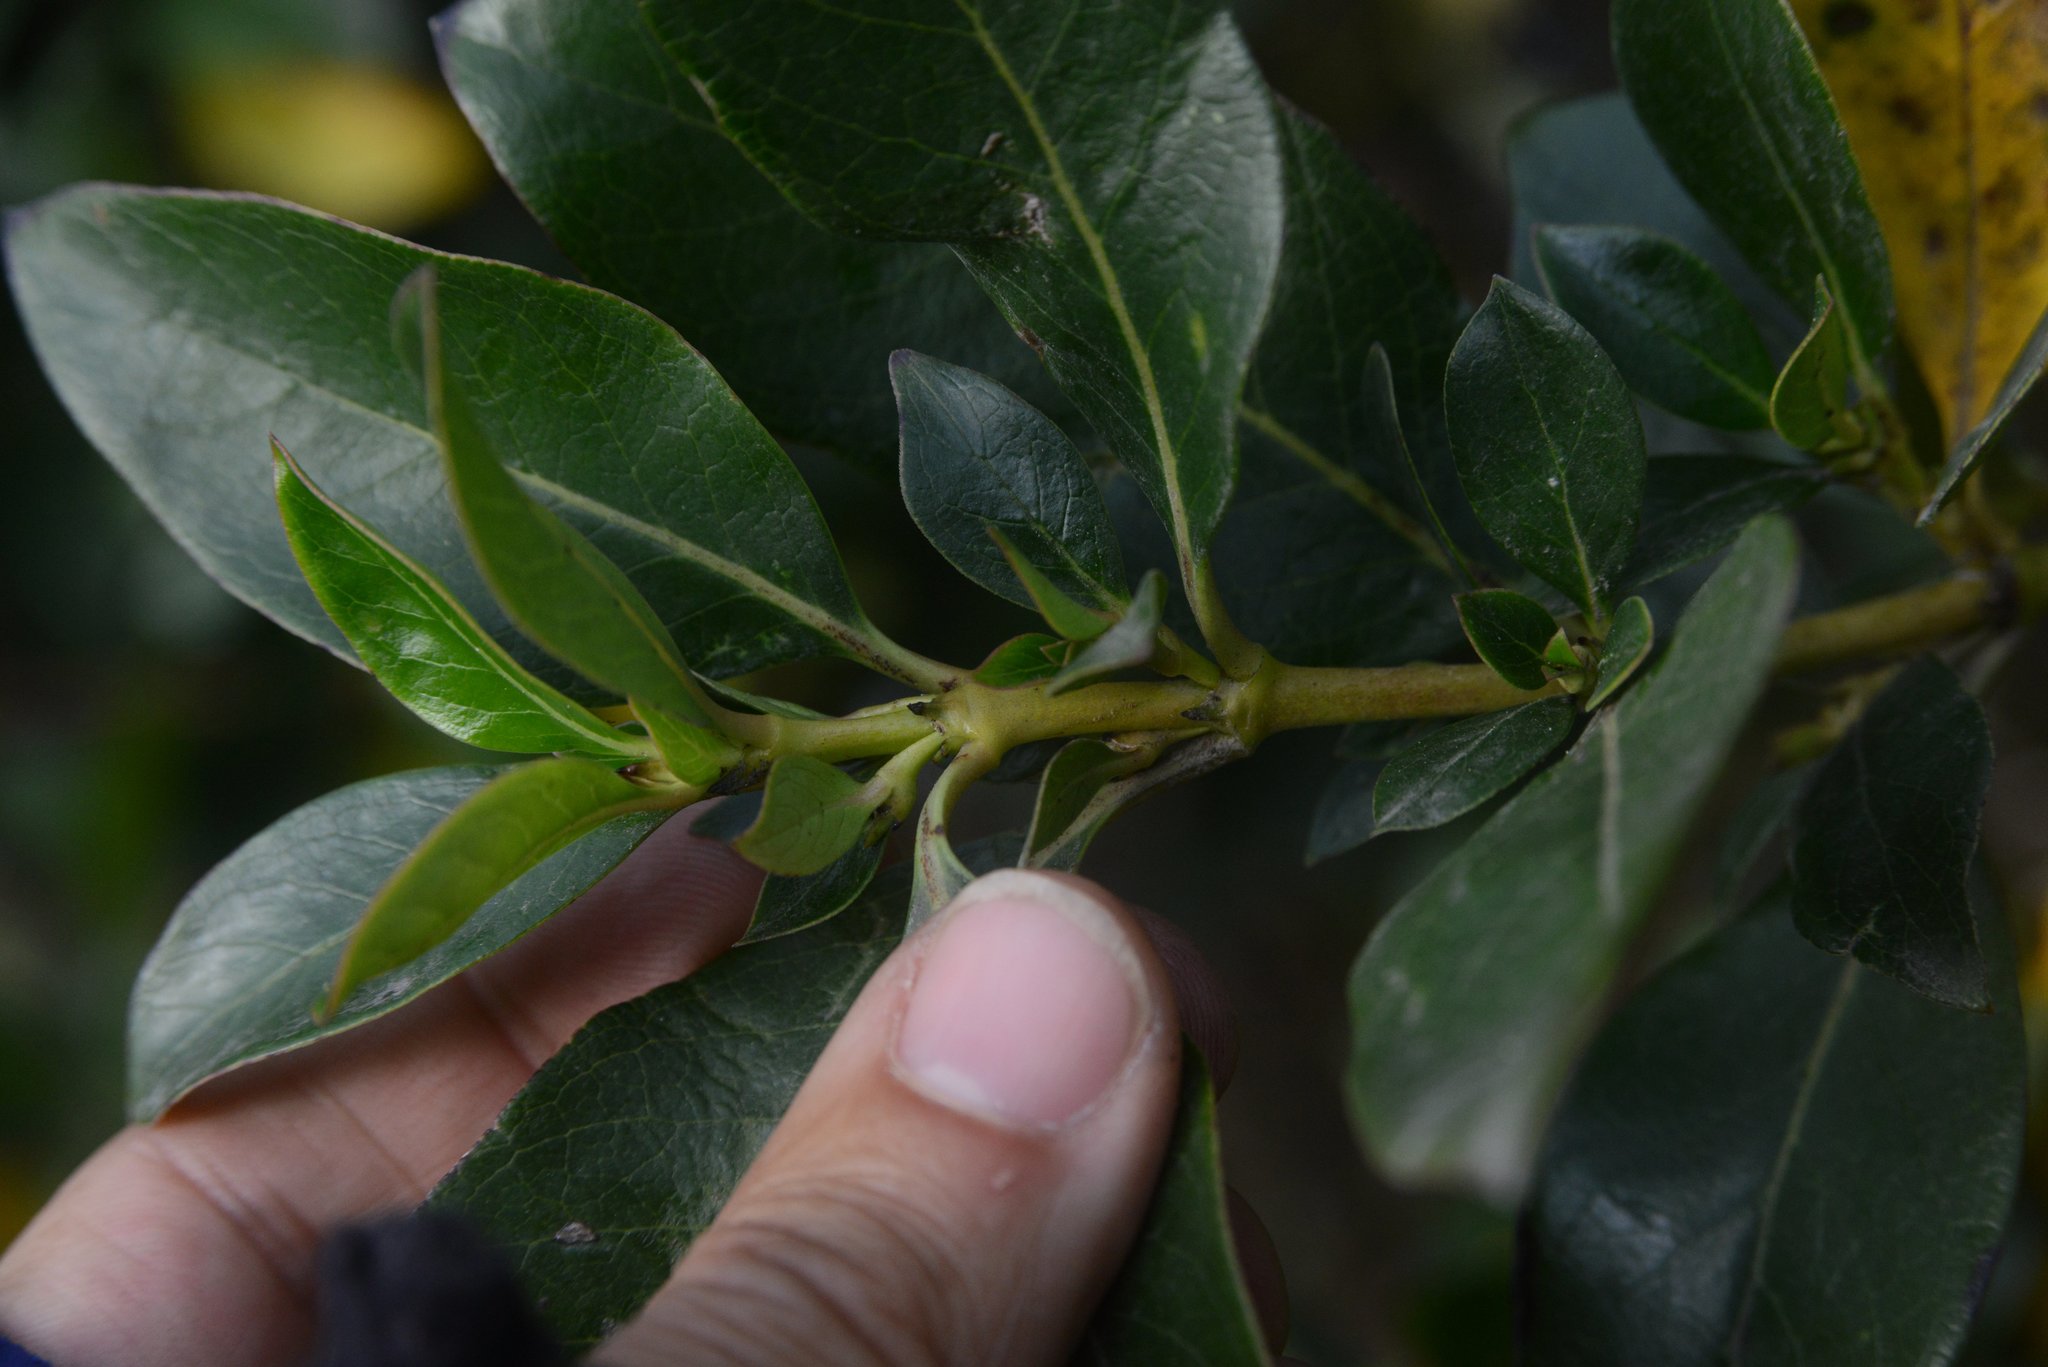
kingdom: Plantae
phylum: Tracheophyta
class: Magnoliopsida
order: Gentianales
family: Rubiaceae
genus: Coprosma
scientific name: Coprosma robusta
